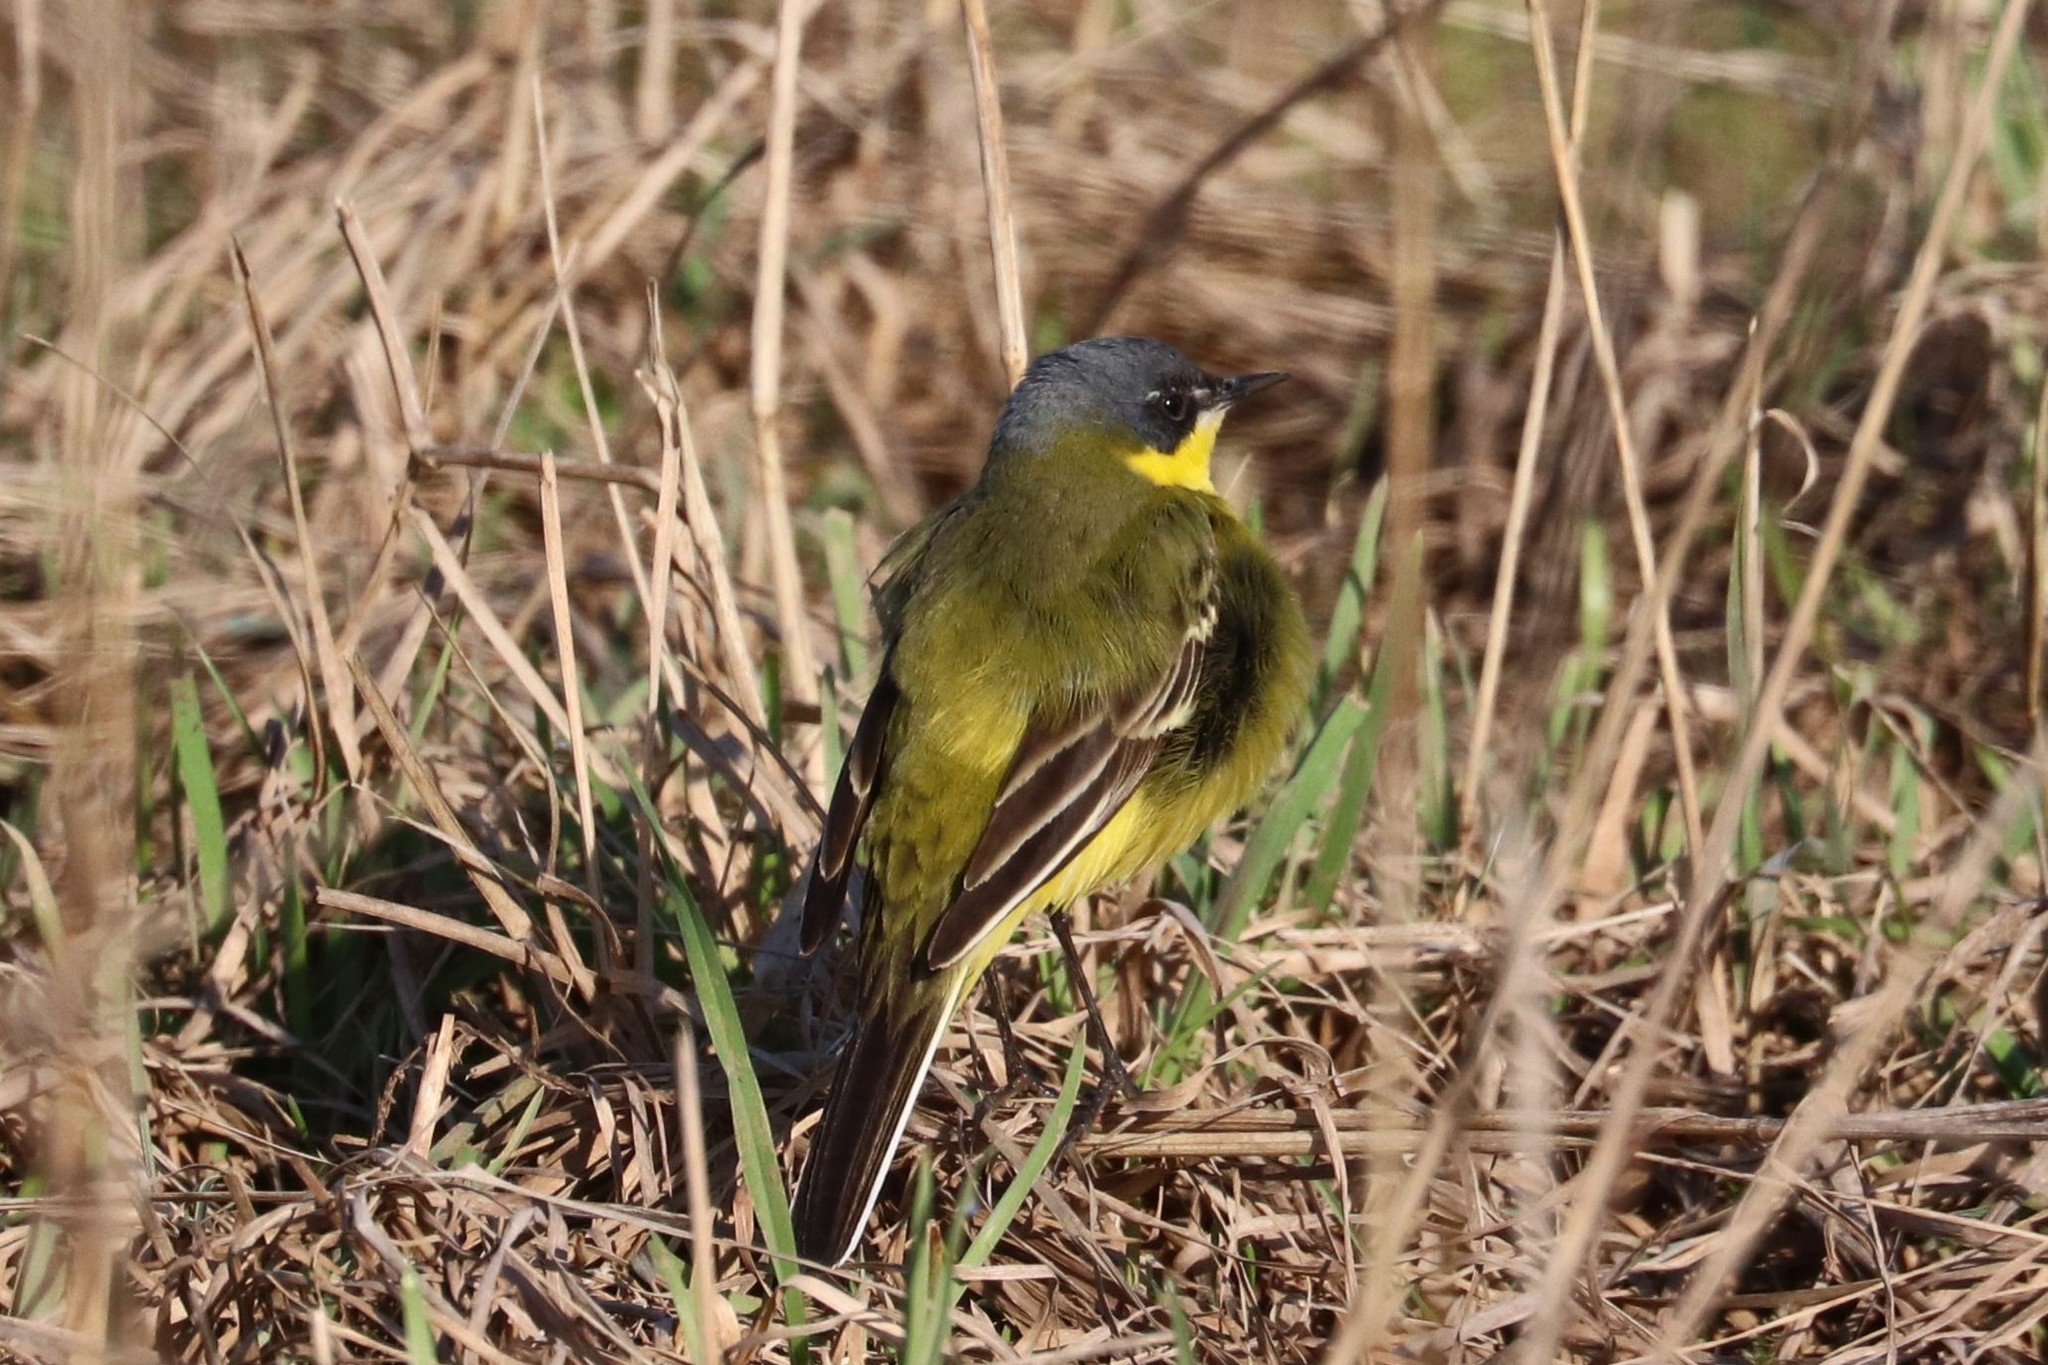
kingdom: Animalia
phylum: Chordata
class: Aves
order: Passeriformes
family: Motacillidae
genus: Motacilla
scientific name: Motacilla flava
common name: Western yellow wagtail
